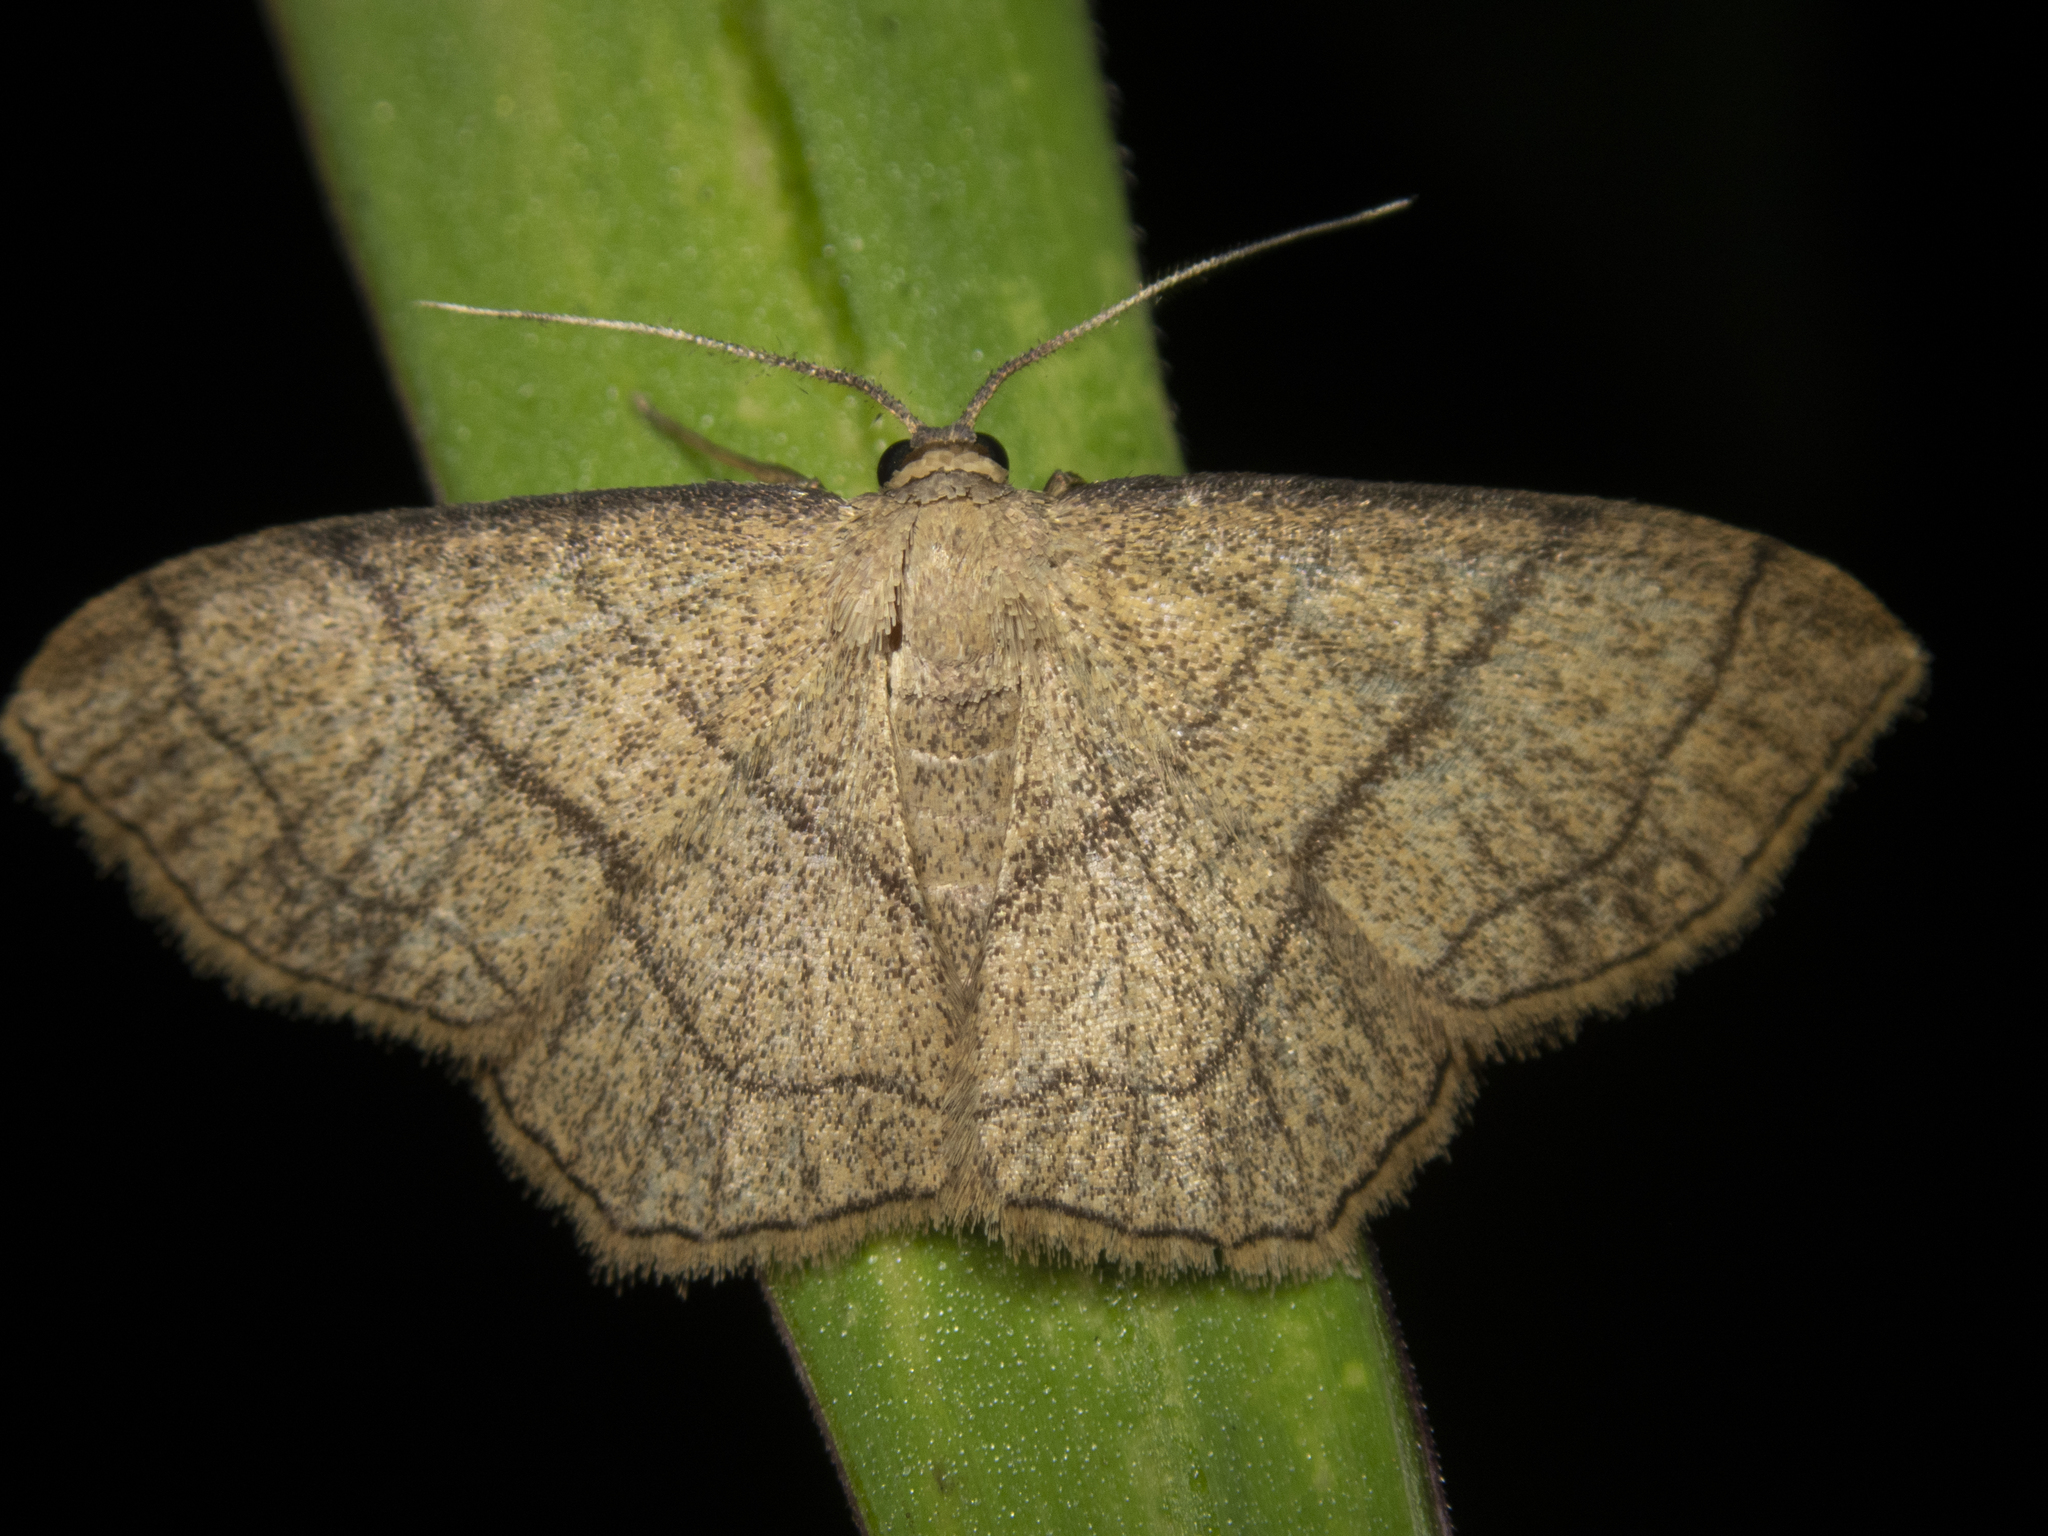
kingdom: Animalia
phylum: Arthropoda
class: Insecta
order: Lepidoptera
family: Geometridae
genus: Scopula
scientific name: Scopula mecysma
